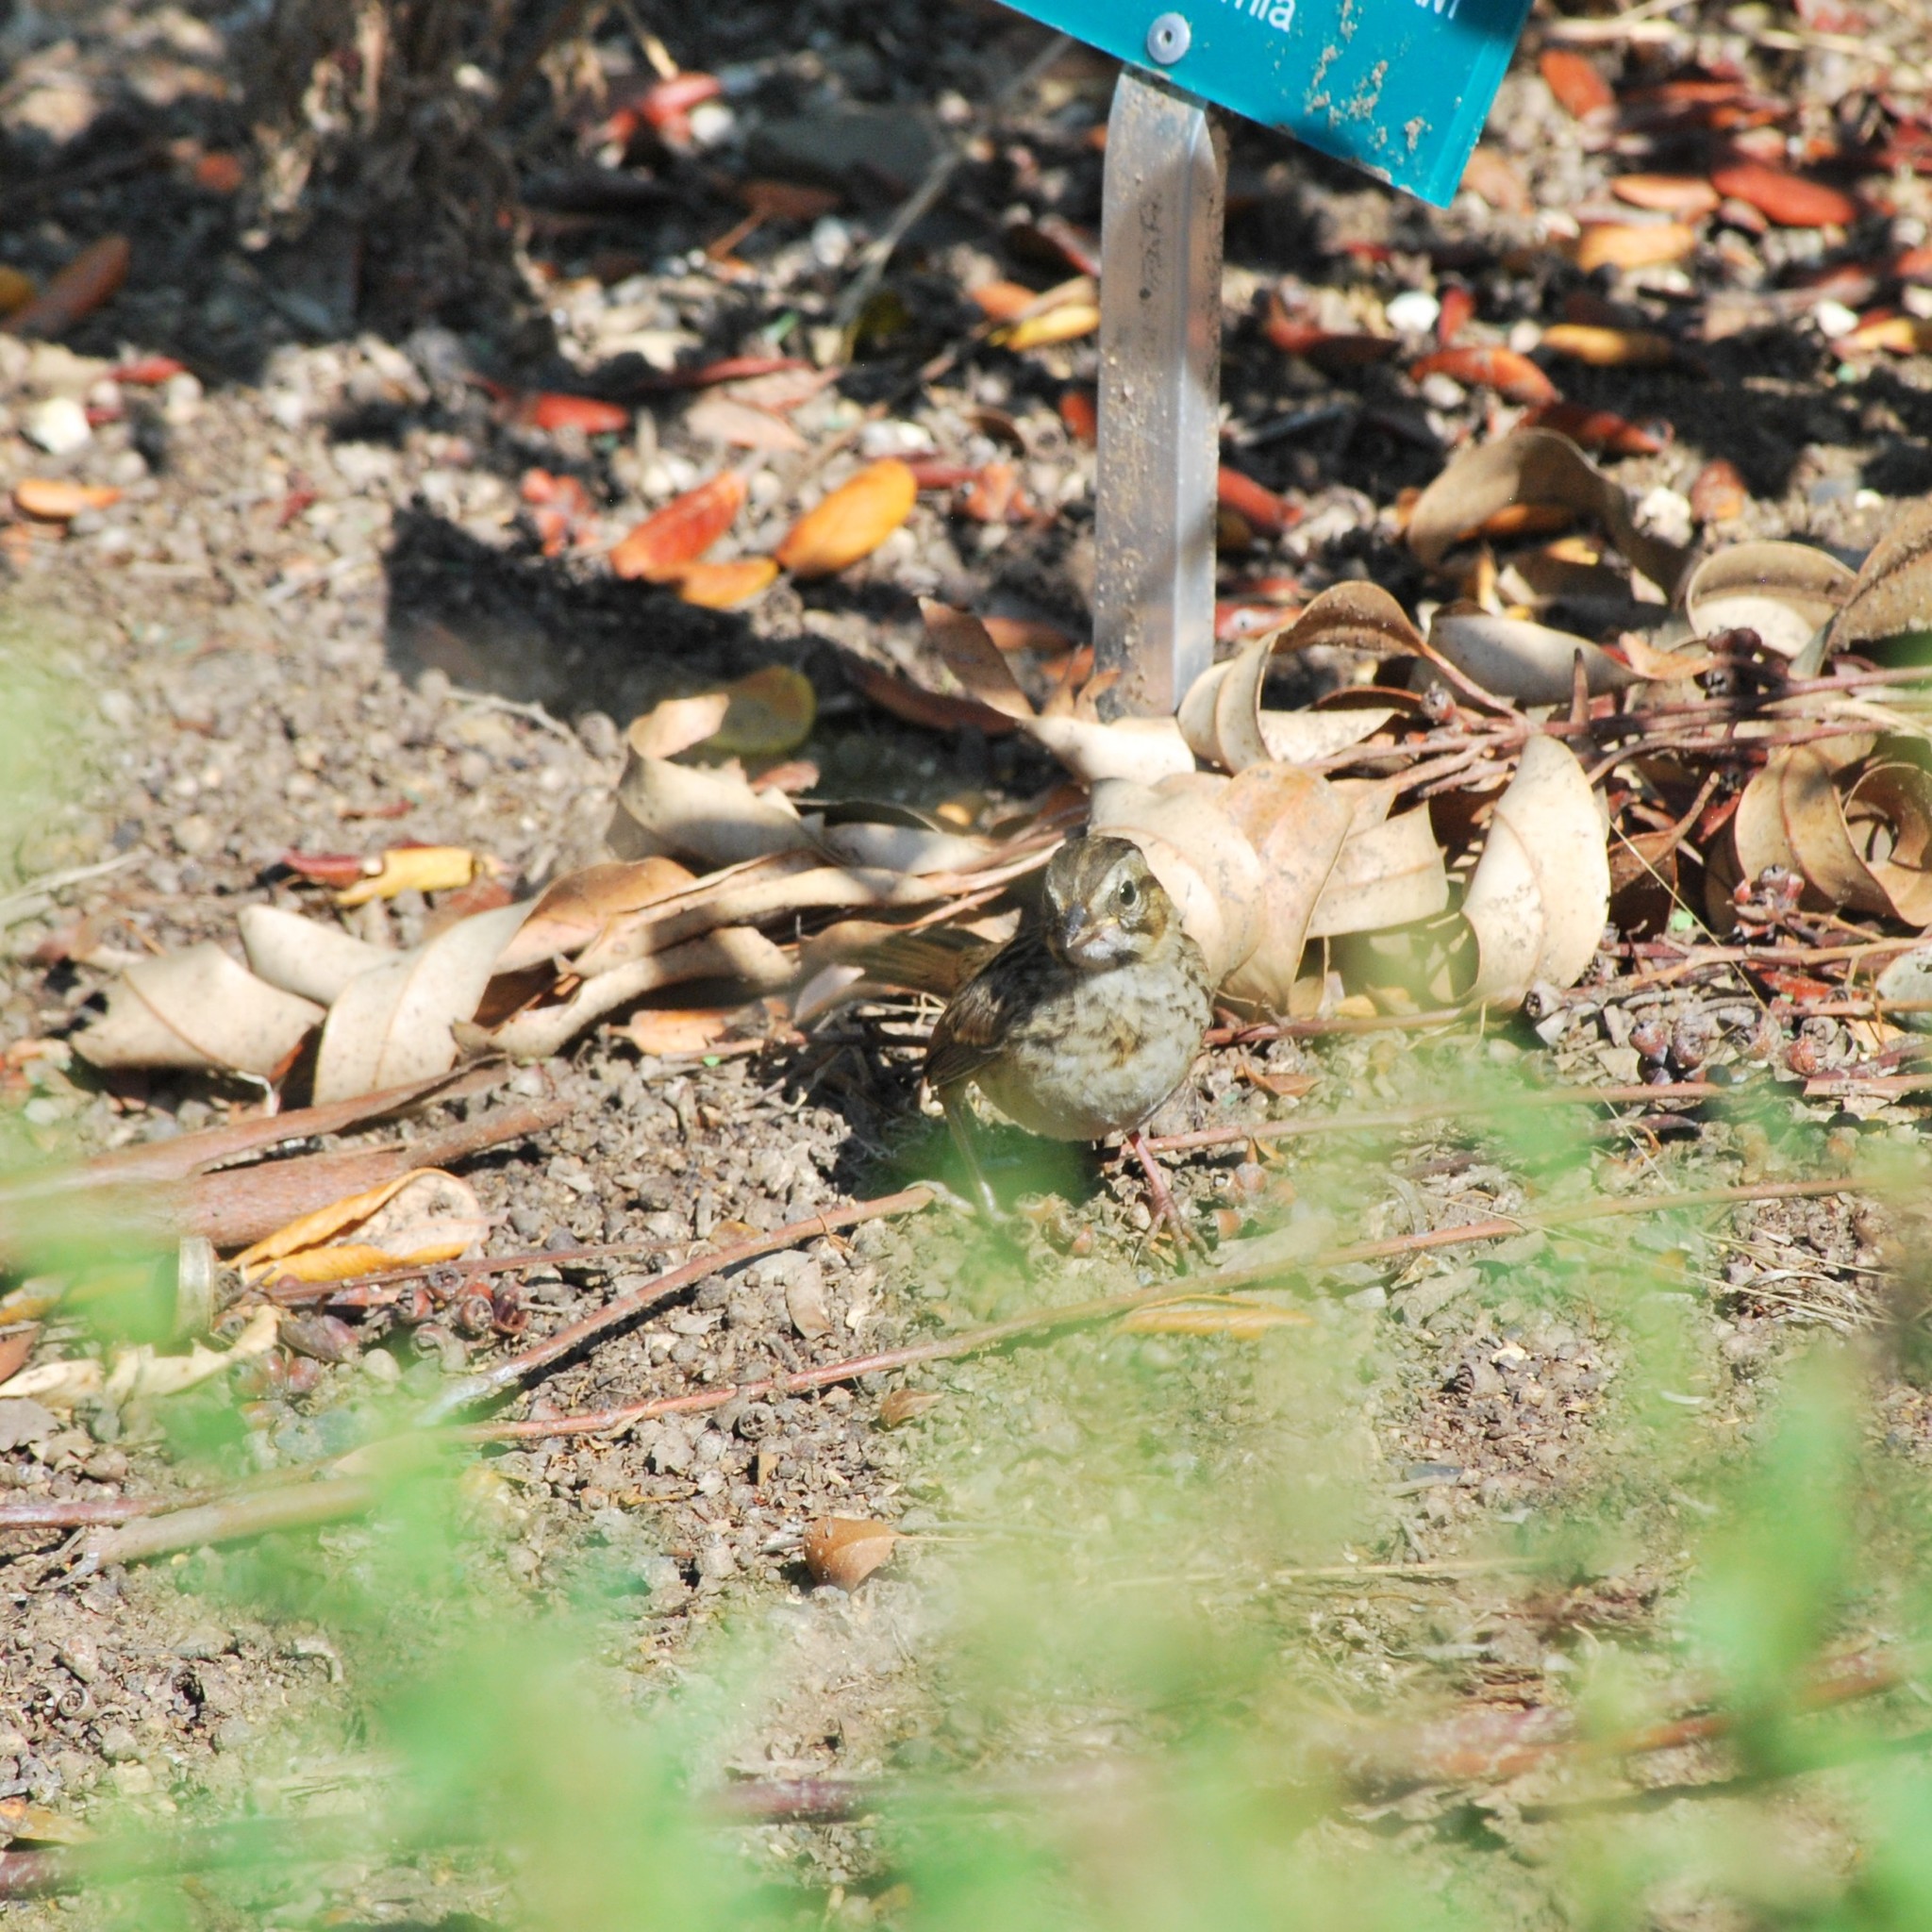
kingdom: Animalia
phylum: Chordata
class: Aves
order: Passeriformes
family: Passerellidae
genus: Melospiza
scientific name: Melospiza melodia
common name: Song sparrow
